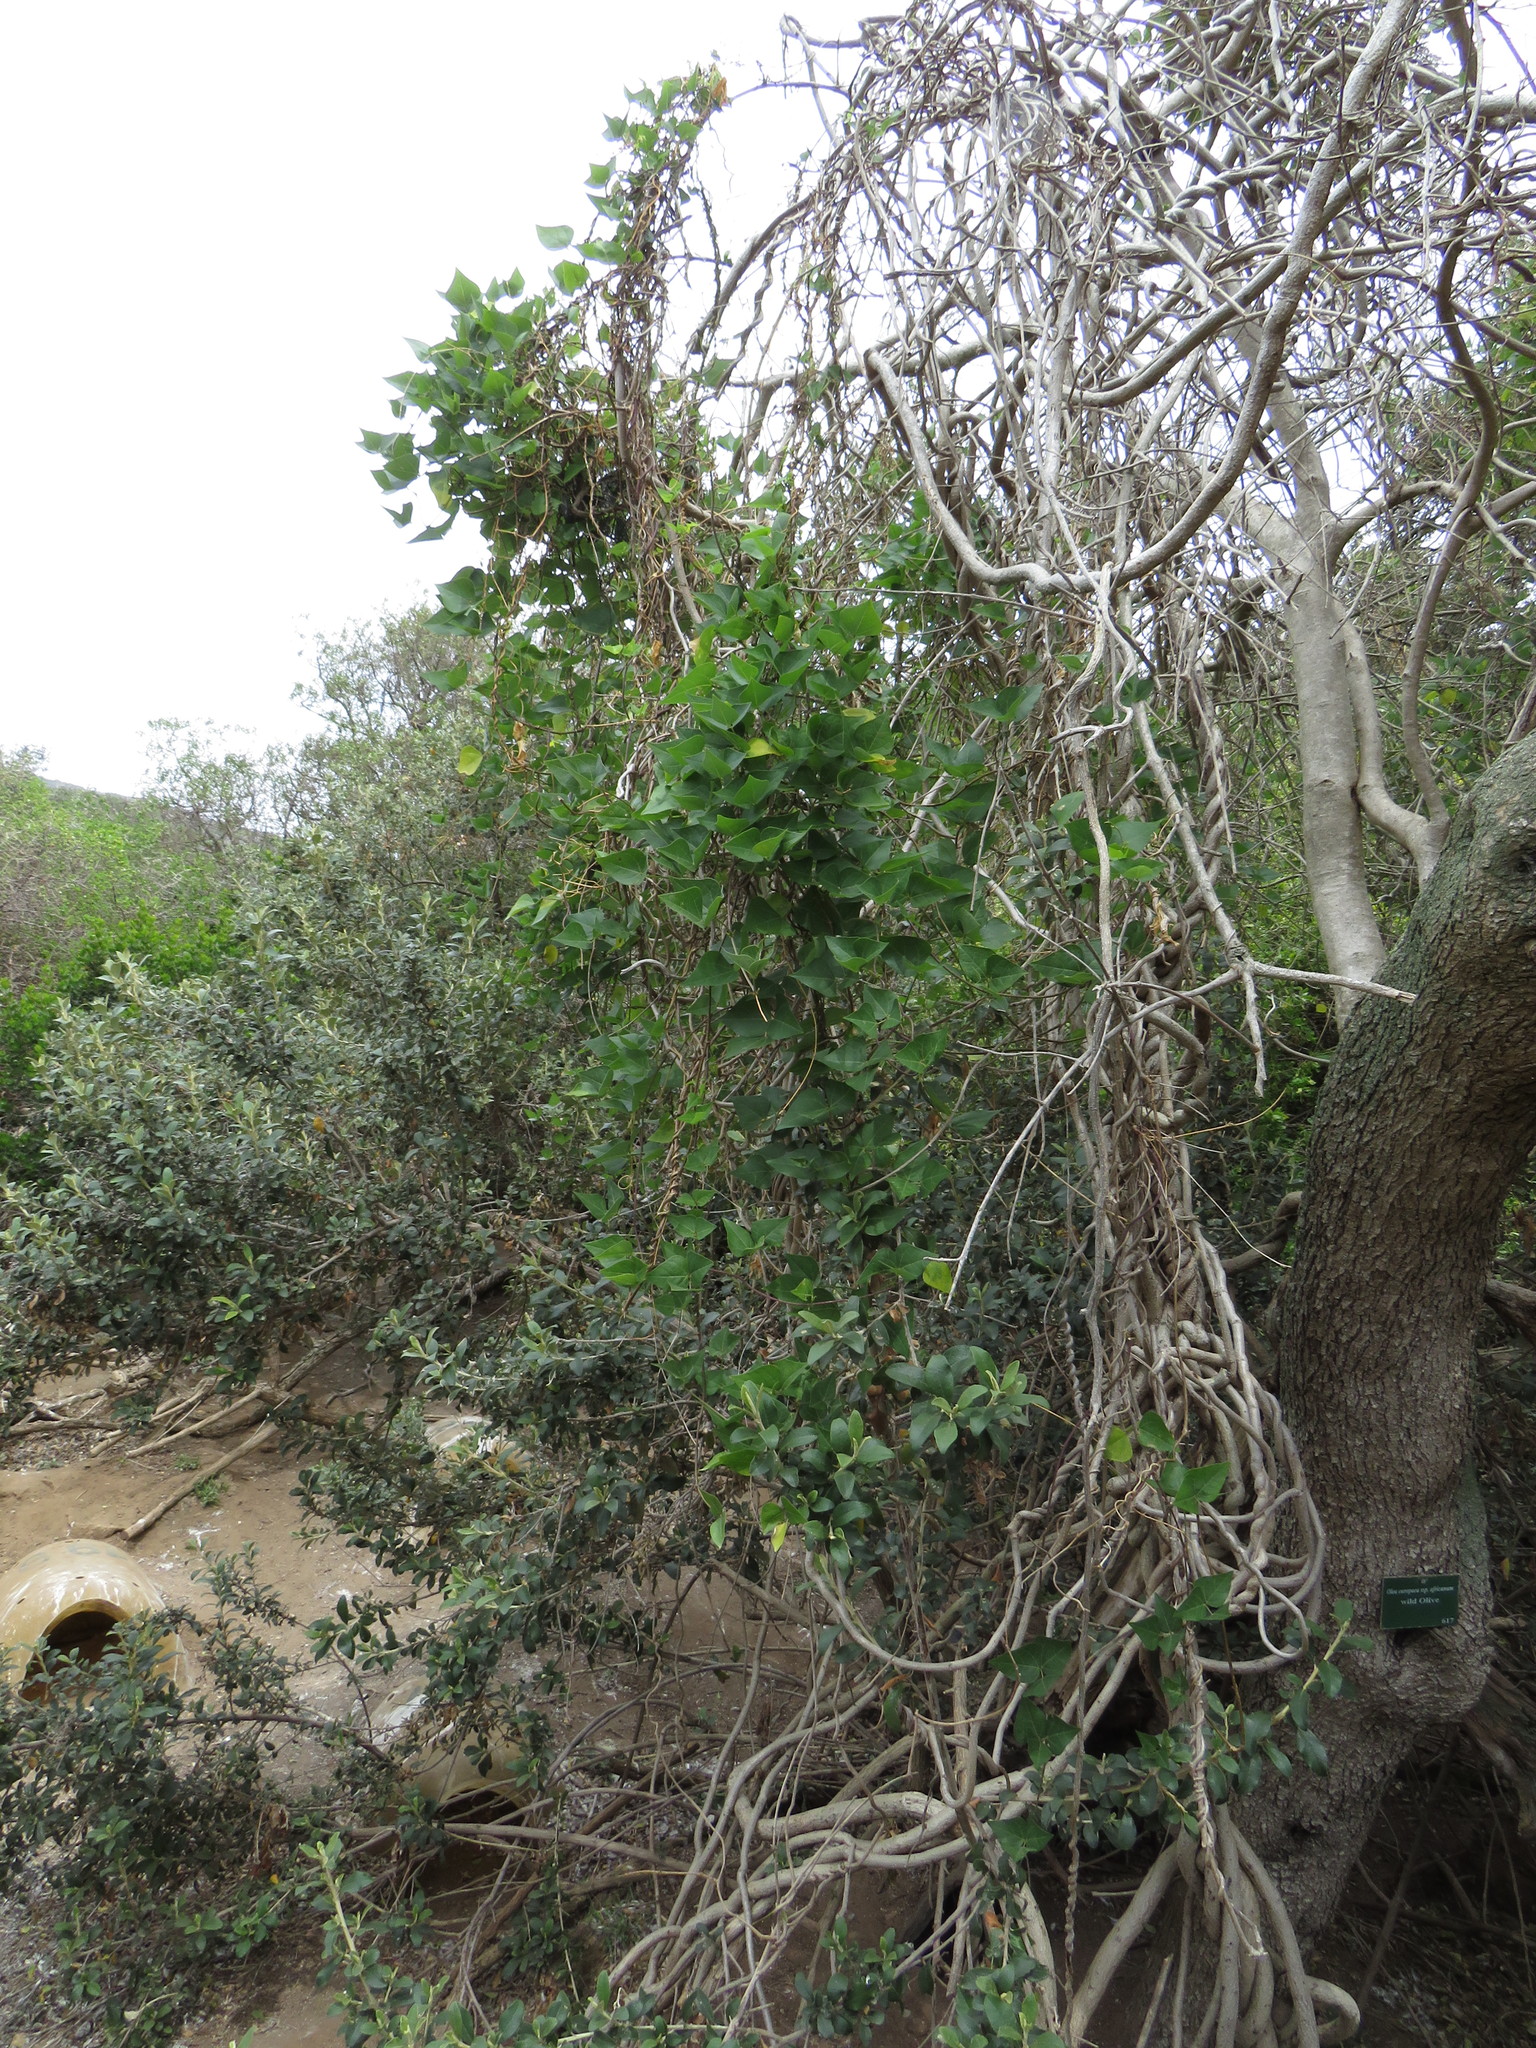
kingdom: Plantae
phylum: Tracheophyta
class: Magnoliopsida
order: Fabales
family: Fabaceae
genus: Dipogon
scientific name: Dipogon lignosus
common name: Okie bean
